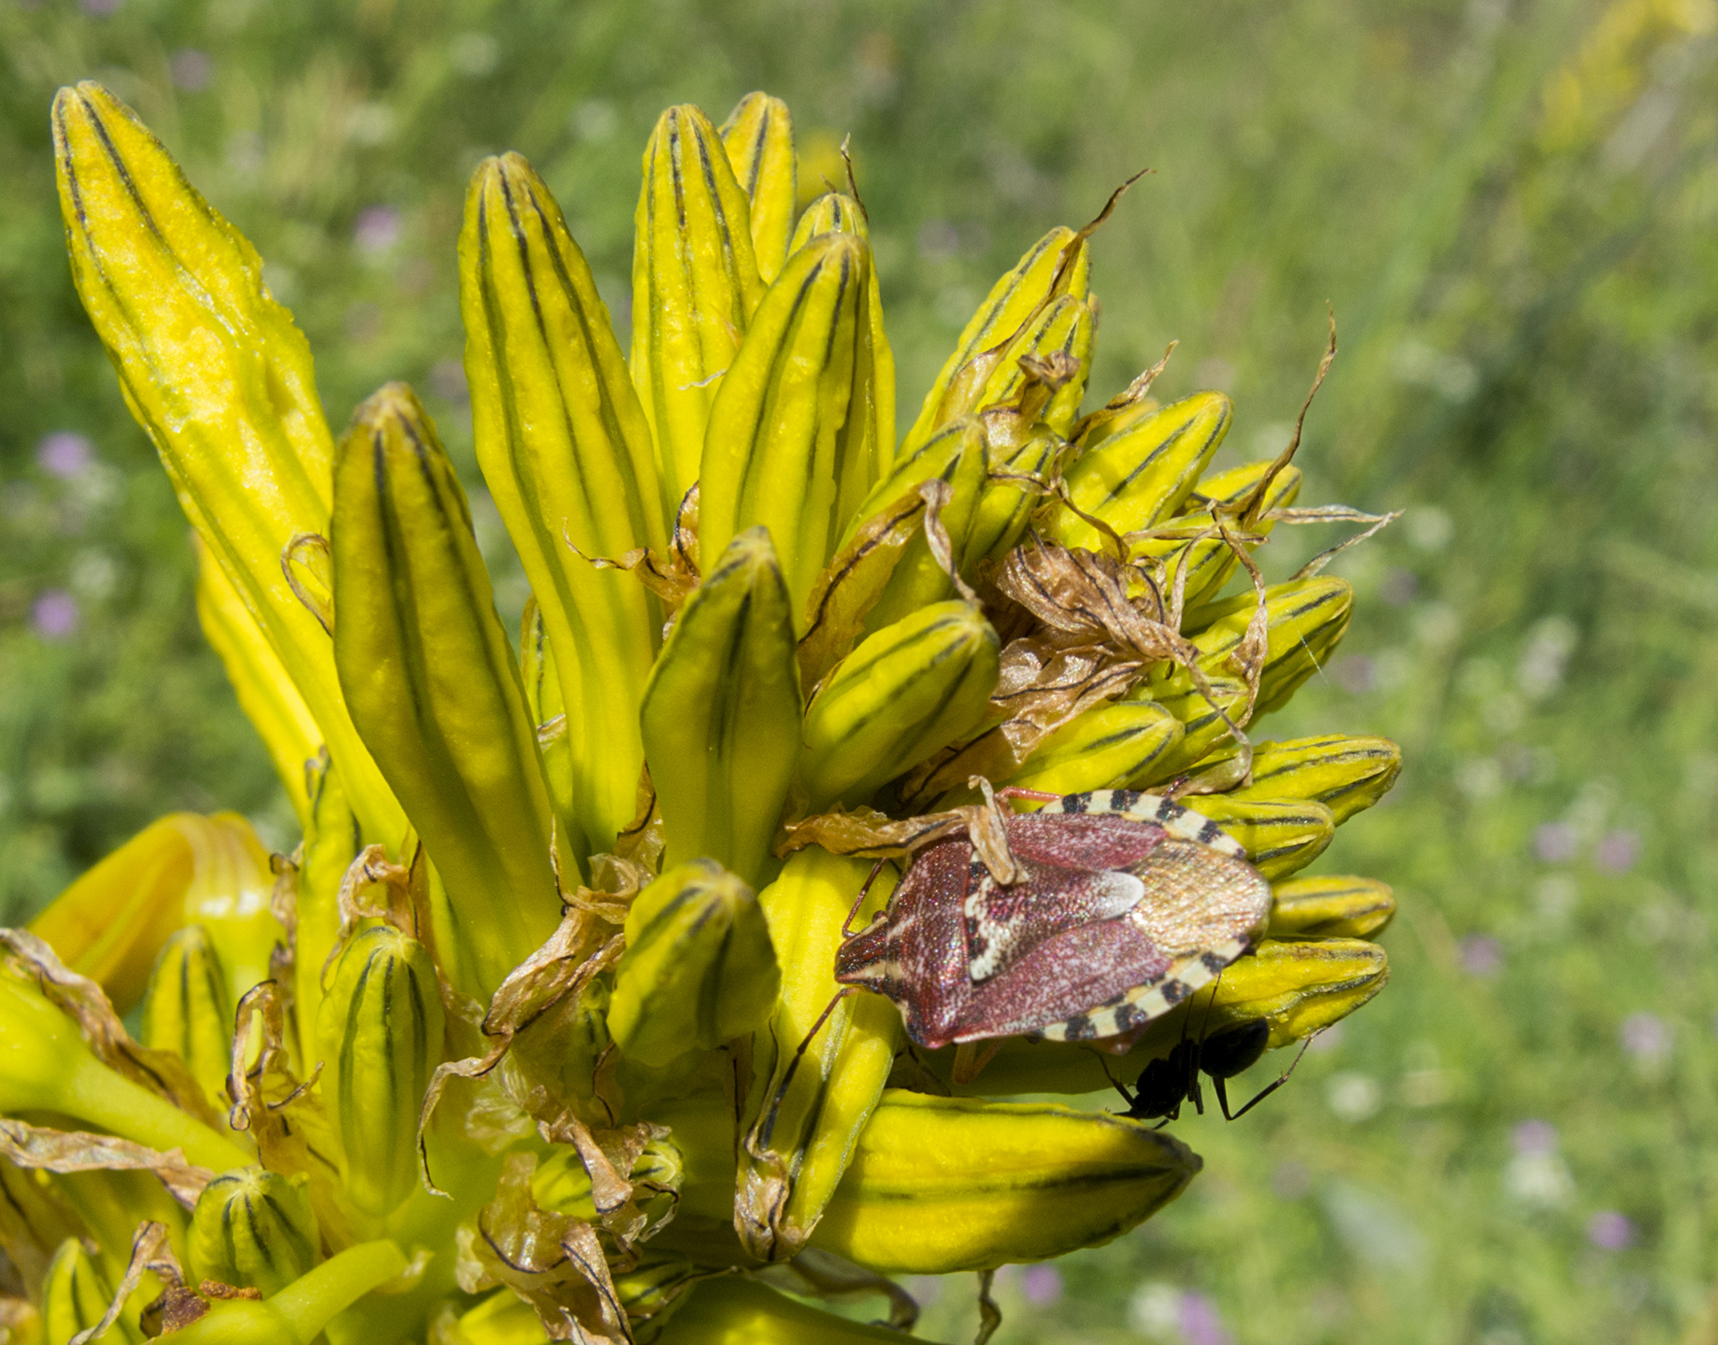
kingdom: Animalia
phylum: Arthropoda
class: Insecta
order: Hemiptera
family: Miridae
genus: Orthops
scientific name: Orthops kalmii
